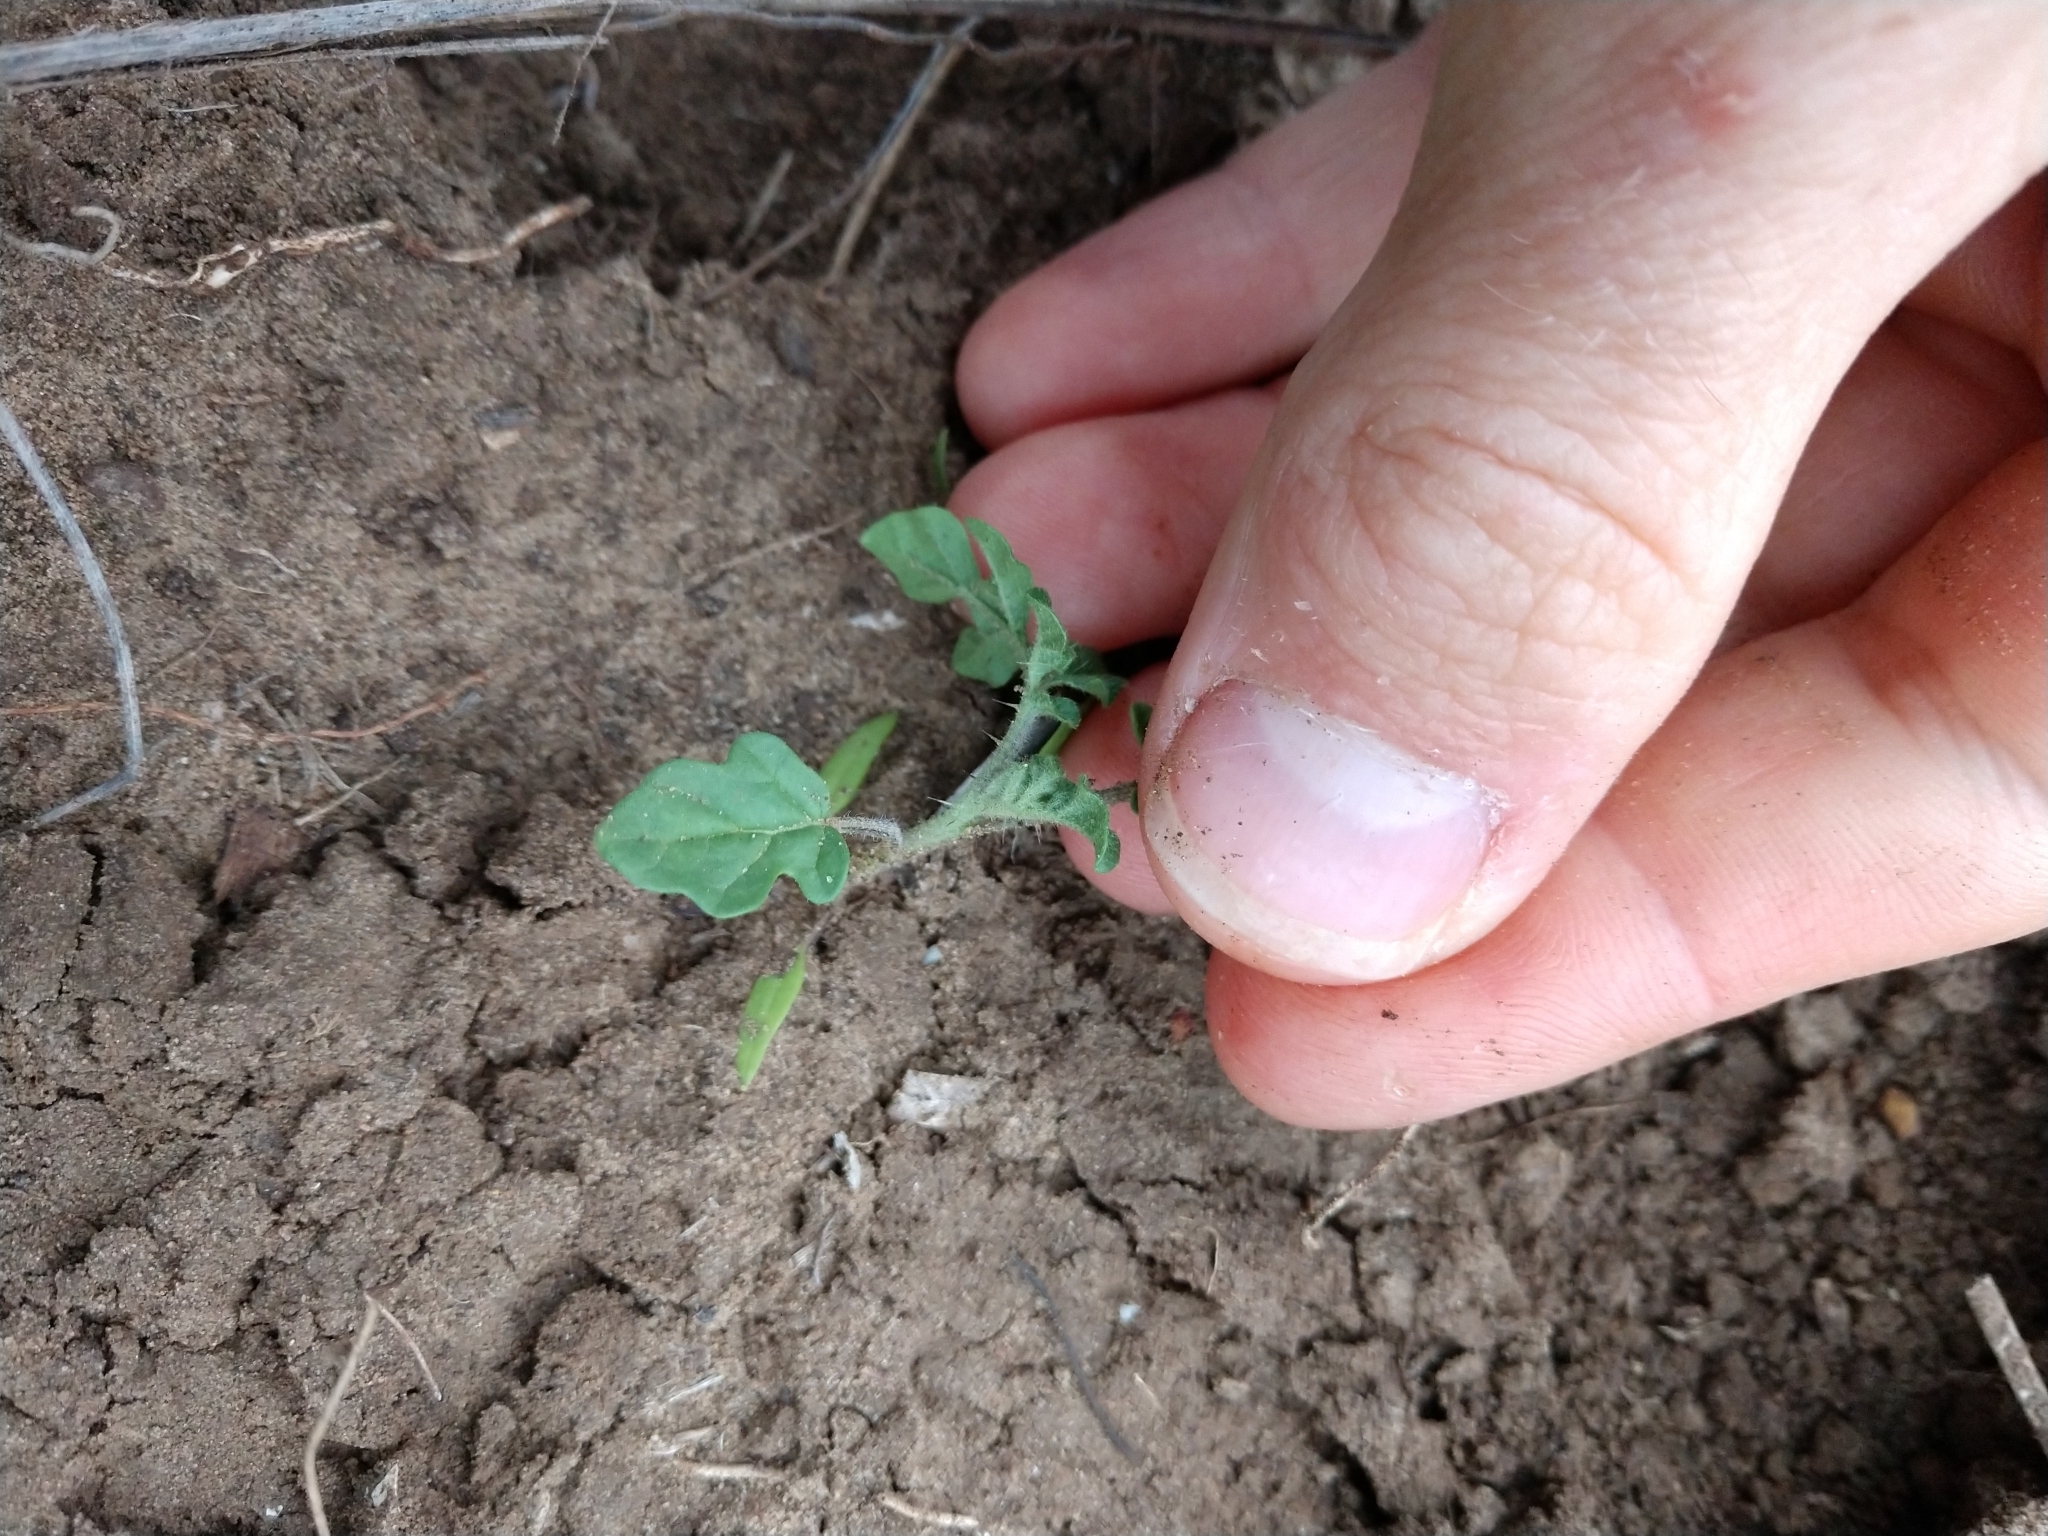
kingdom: Plantae
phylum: Tracheophyta
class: Magnoliopsida
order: Solanales
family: Solanaceae
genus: Solanum
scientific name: Solanum angustifolium
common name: Buffalobur nightshade
